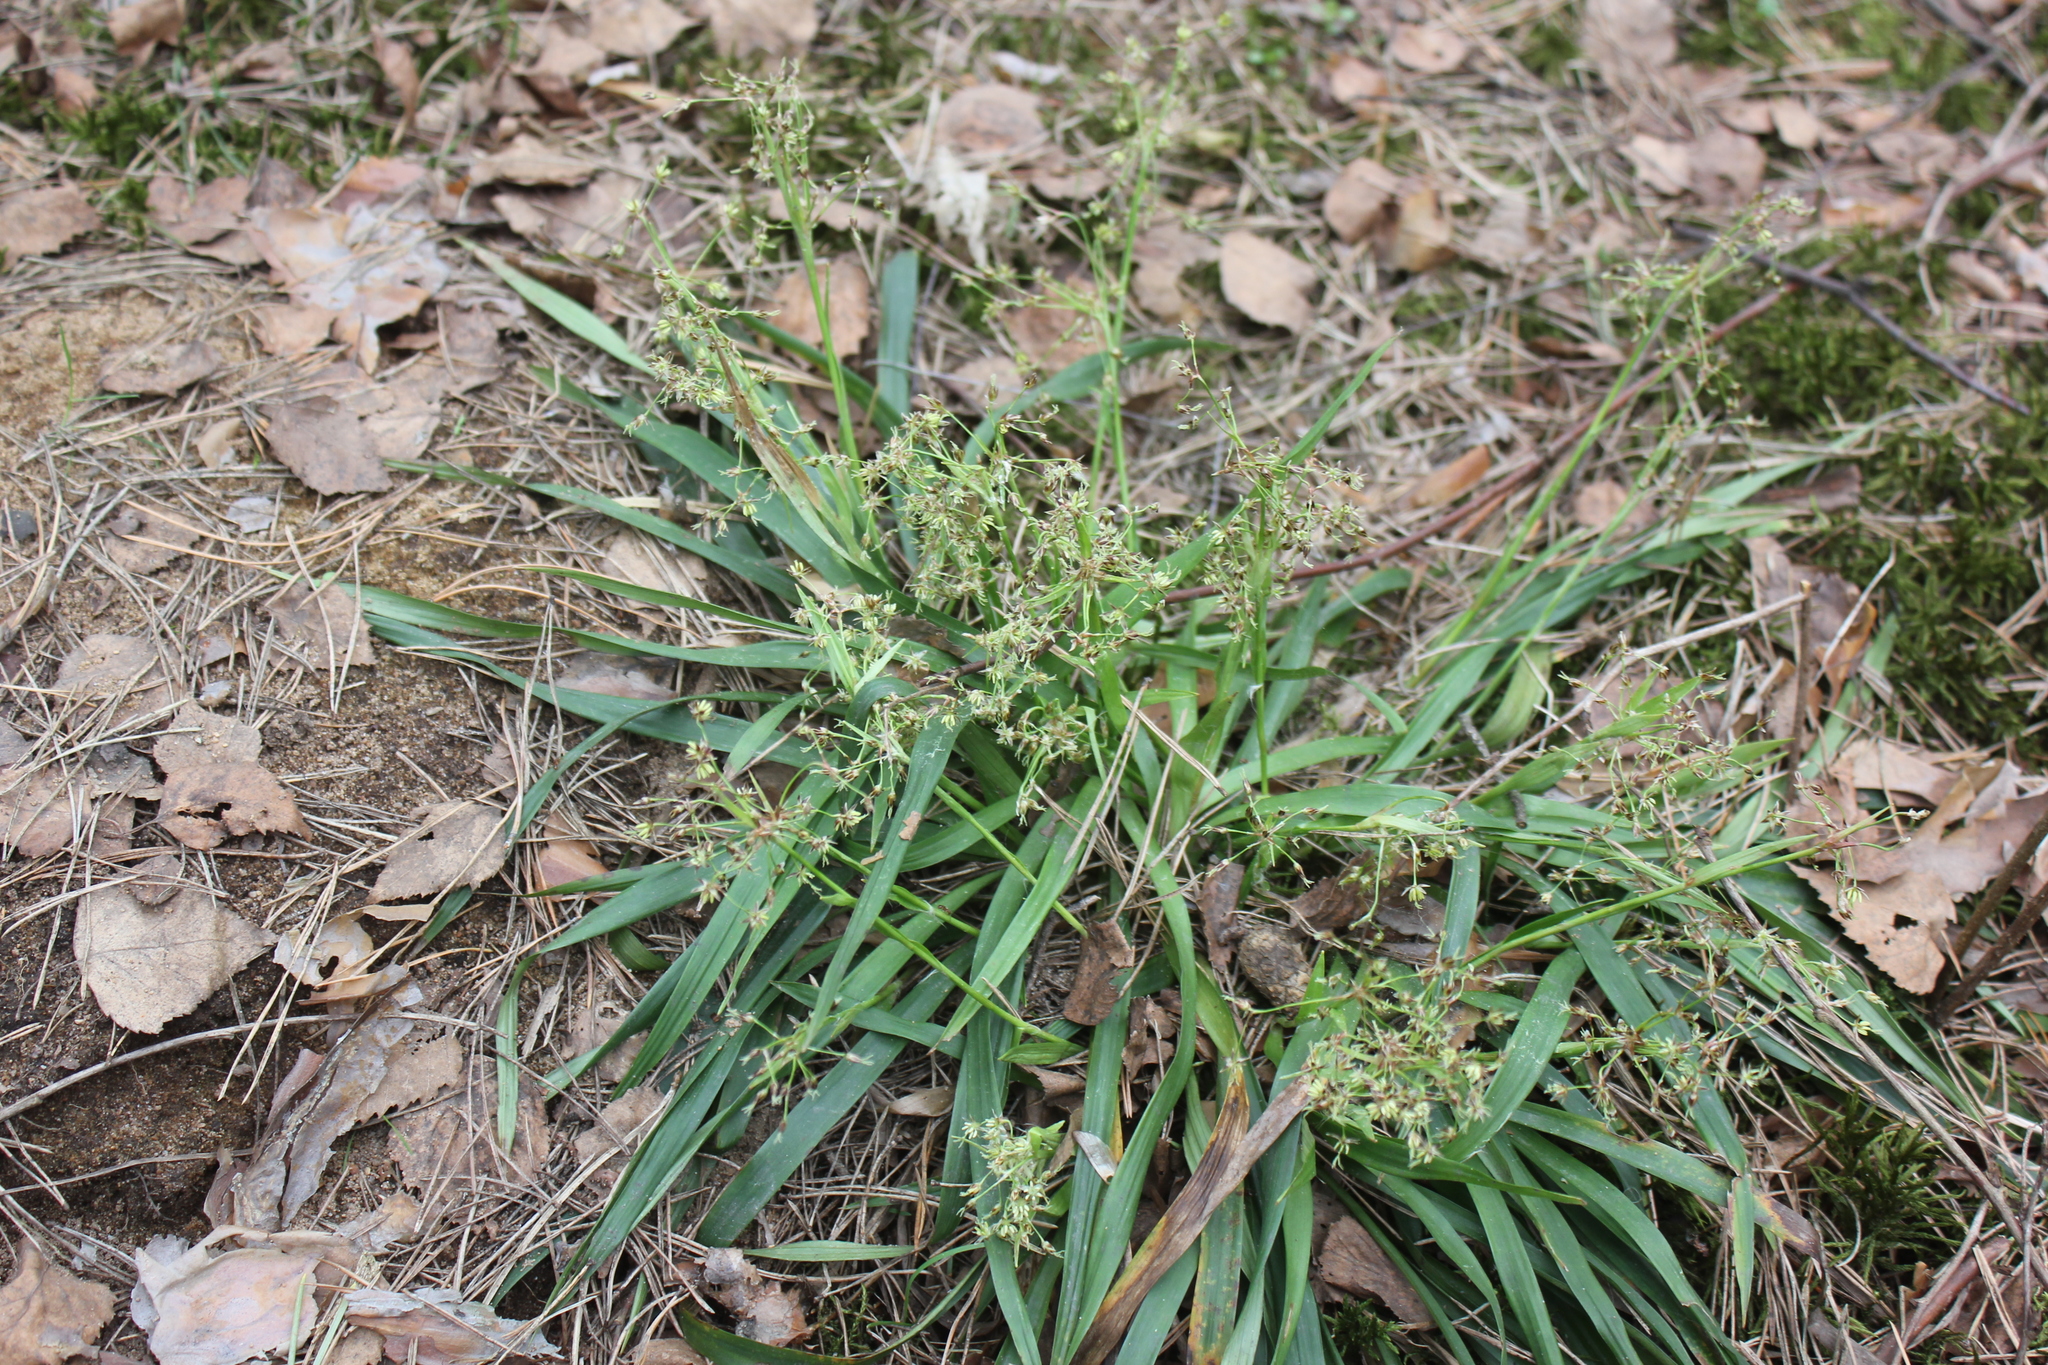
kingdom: Plantae
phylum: Tracheophyta
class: Liliopsida
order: Poales
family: Juncaceae
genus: Luzula
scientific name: Luzula pilosa
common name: Hairy wood-rush
